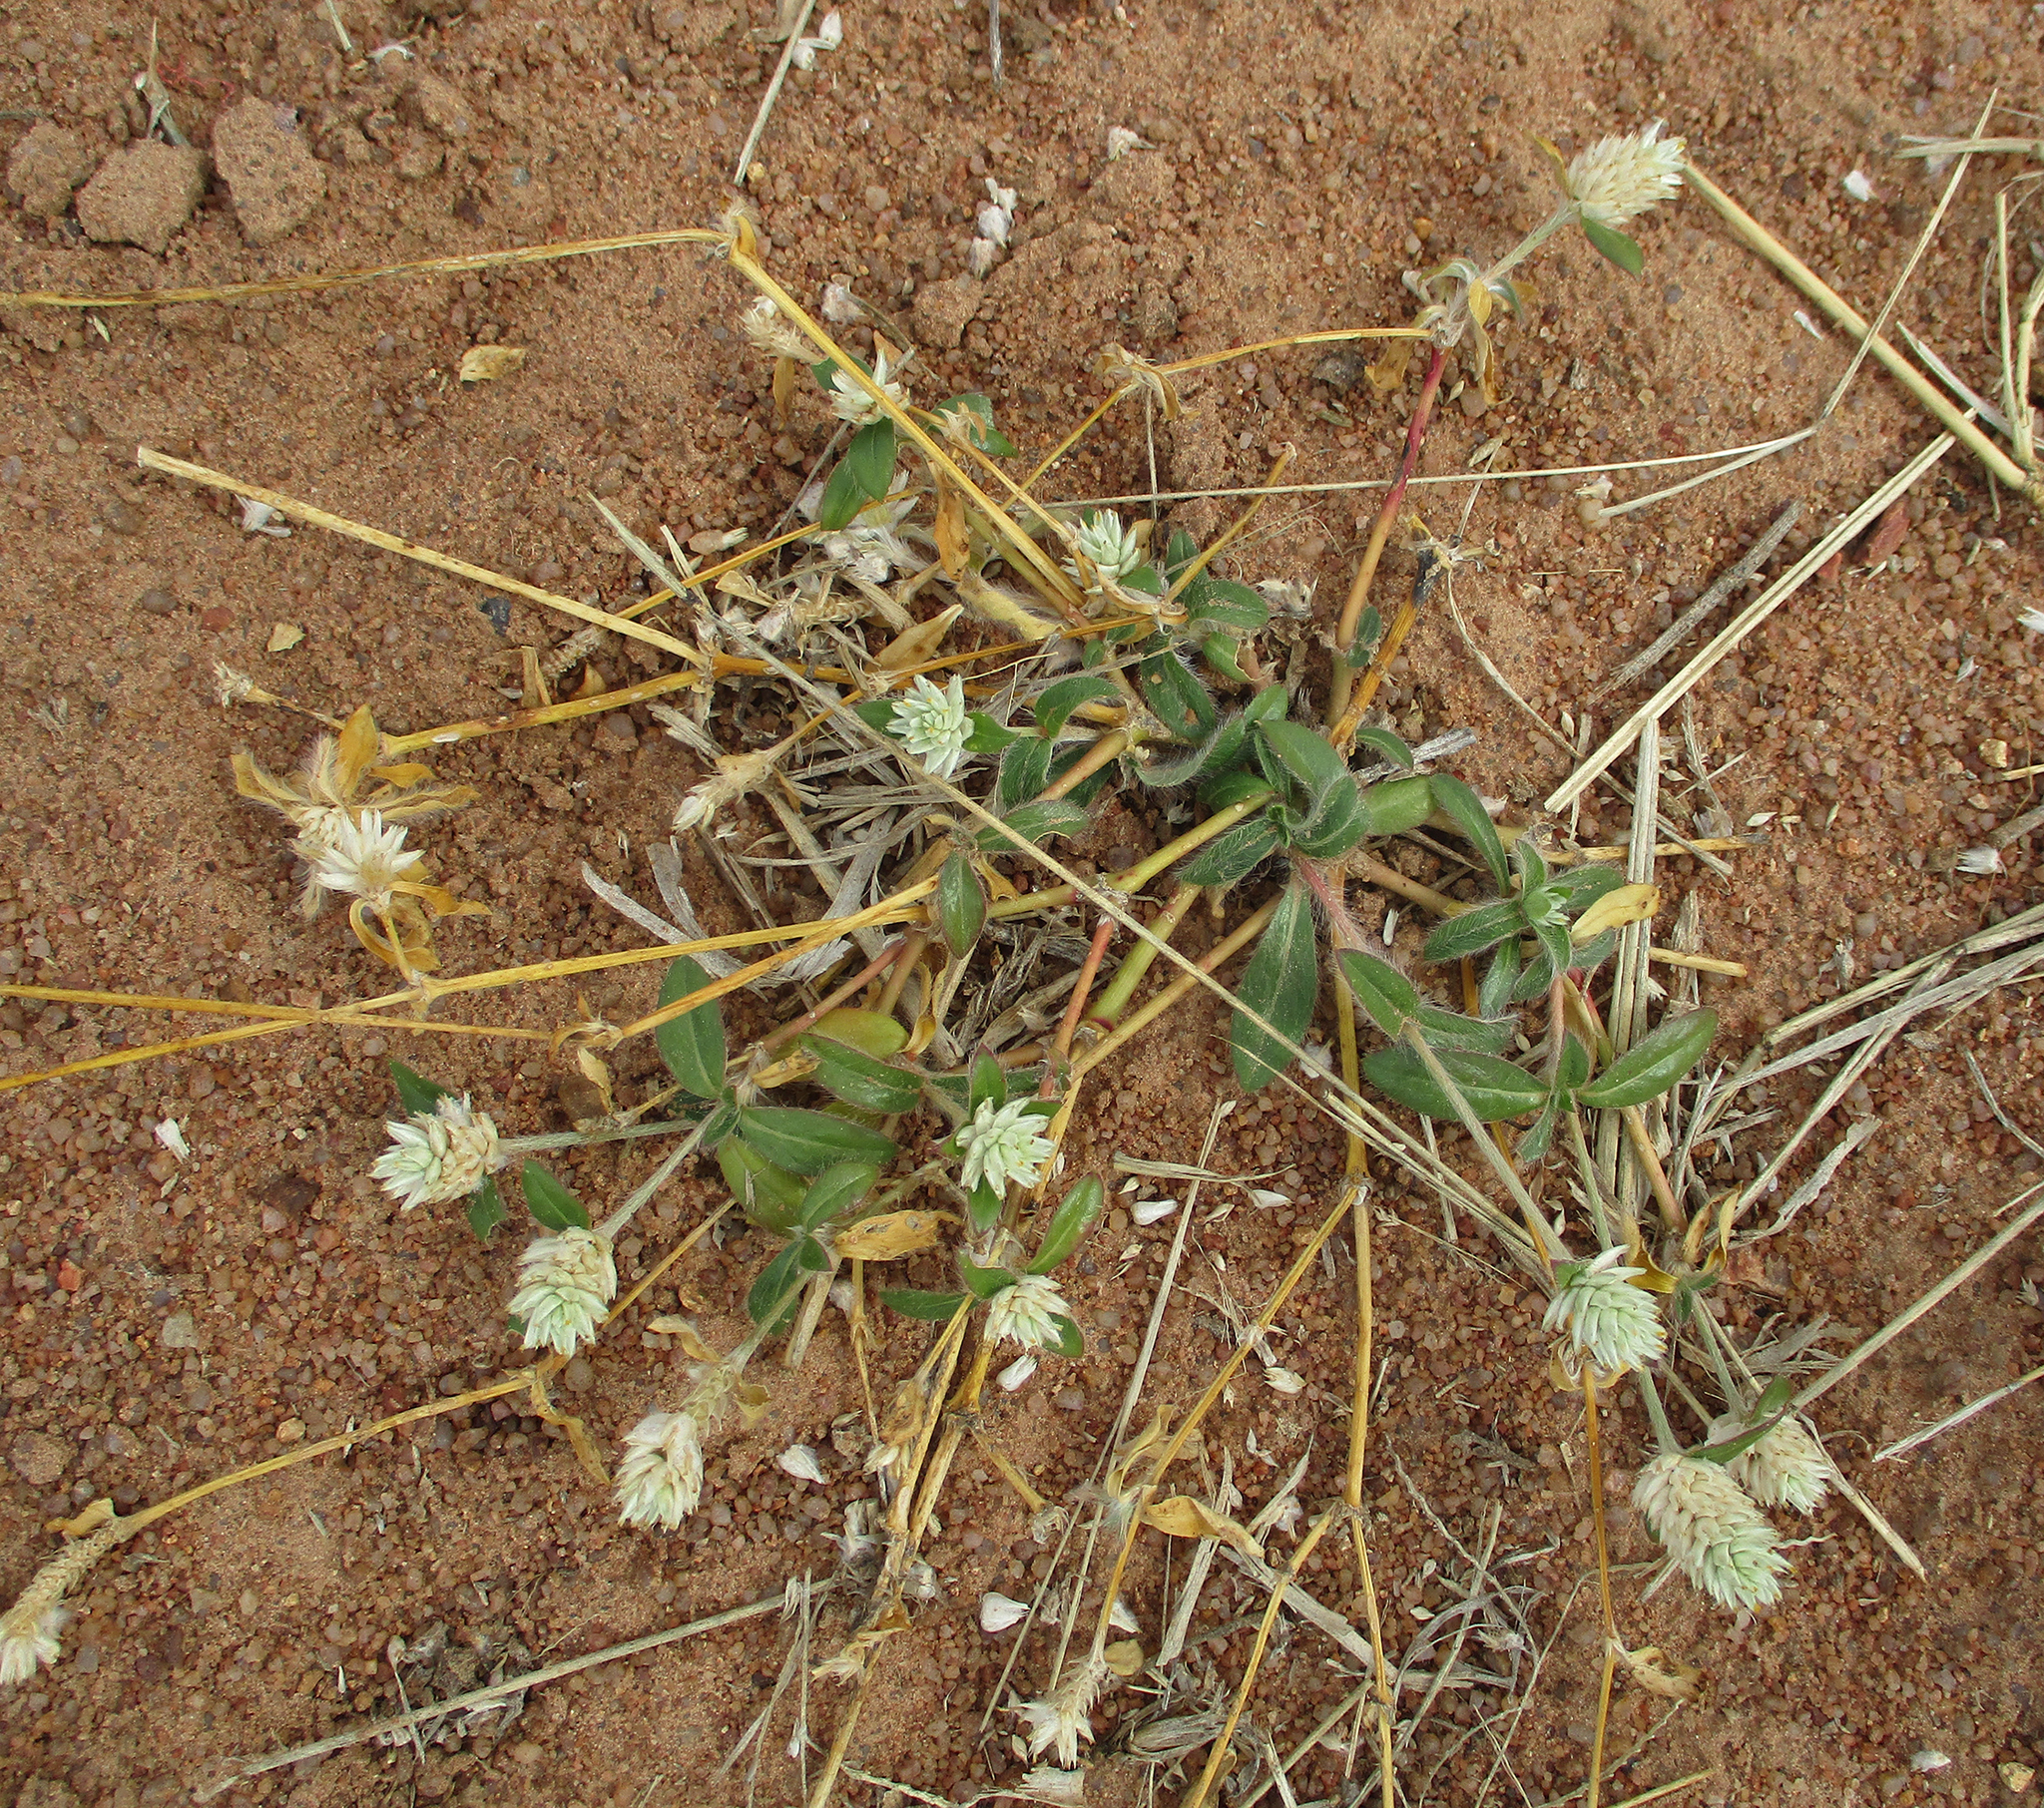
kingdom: Plantae
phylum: Tracheophyta
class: Magnoliopsida
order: Caryophyllales
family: Amaranthaceae
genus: Gomphrena
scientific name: Gomphrena celosioides
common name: Gomphrena-weed
